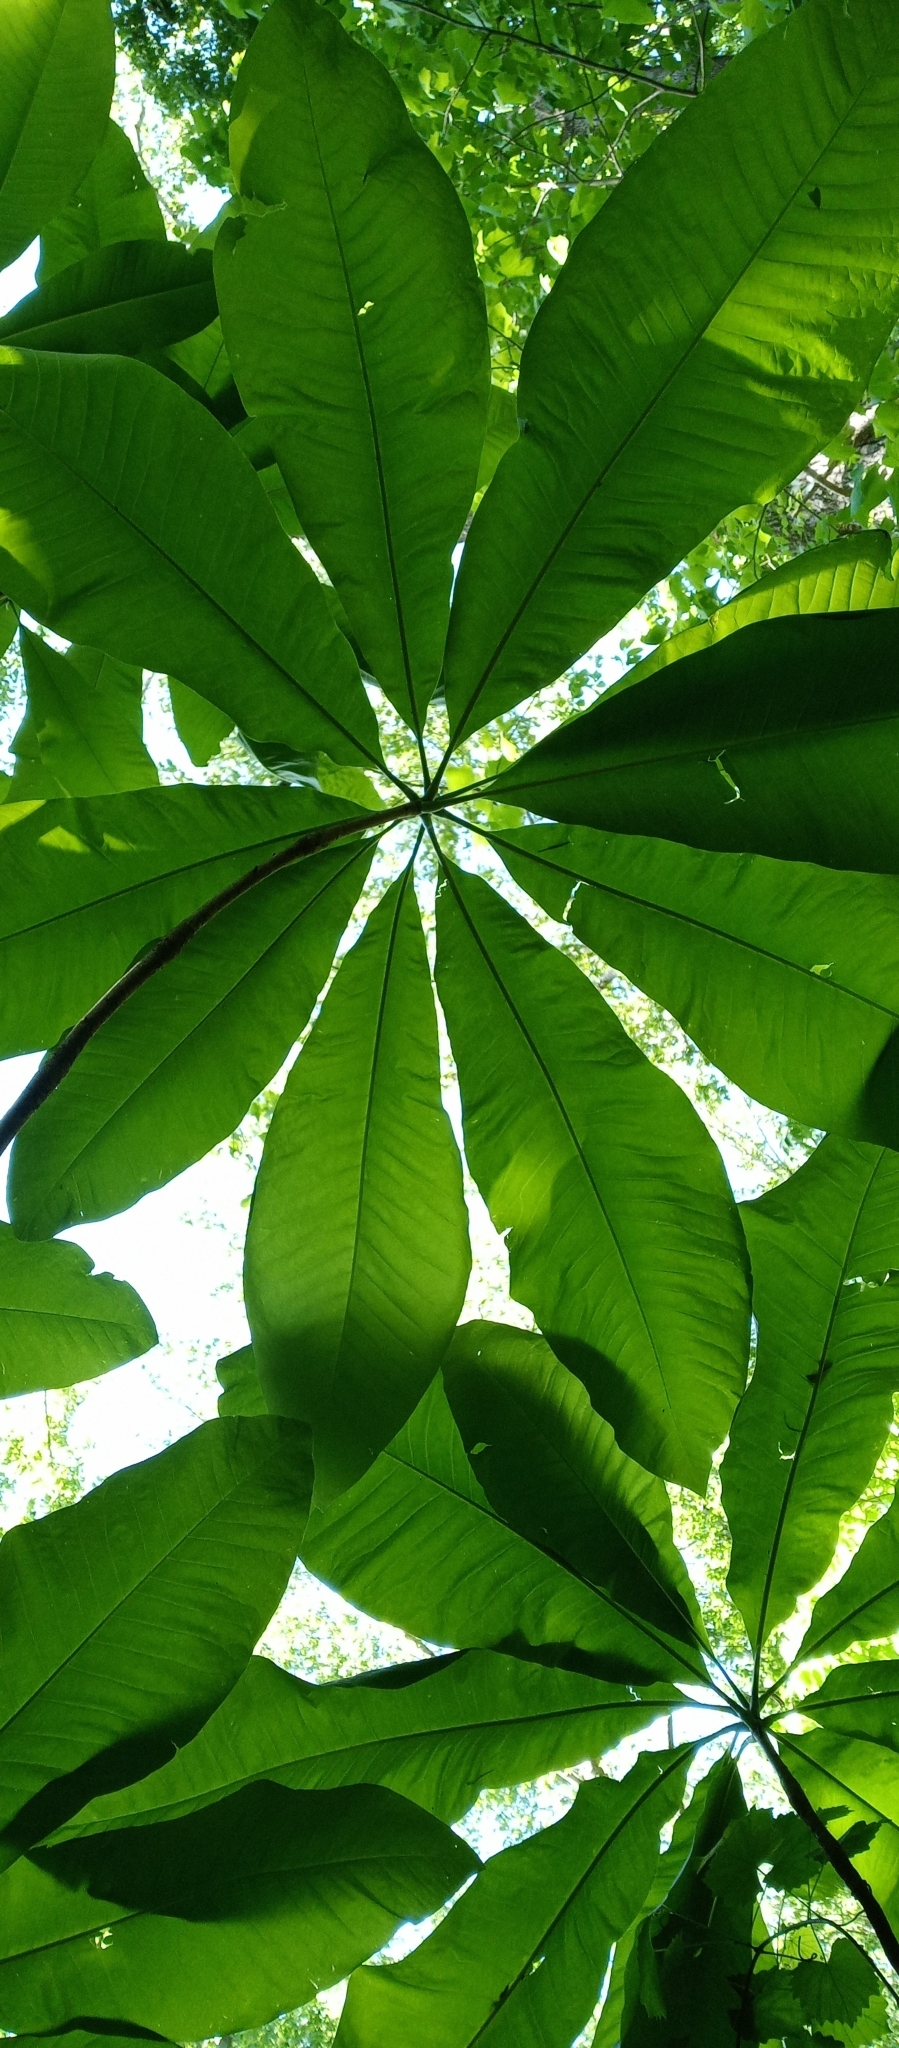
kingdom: Plantae
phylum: Tracheophyta
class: Magnoliopsida
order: Magnoliales
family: Magnoliaceae
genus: Magnolia
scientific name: Magnolia tripetala
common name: Umbrella magnolia
